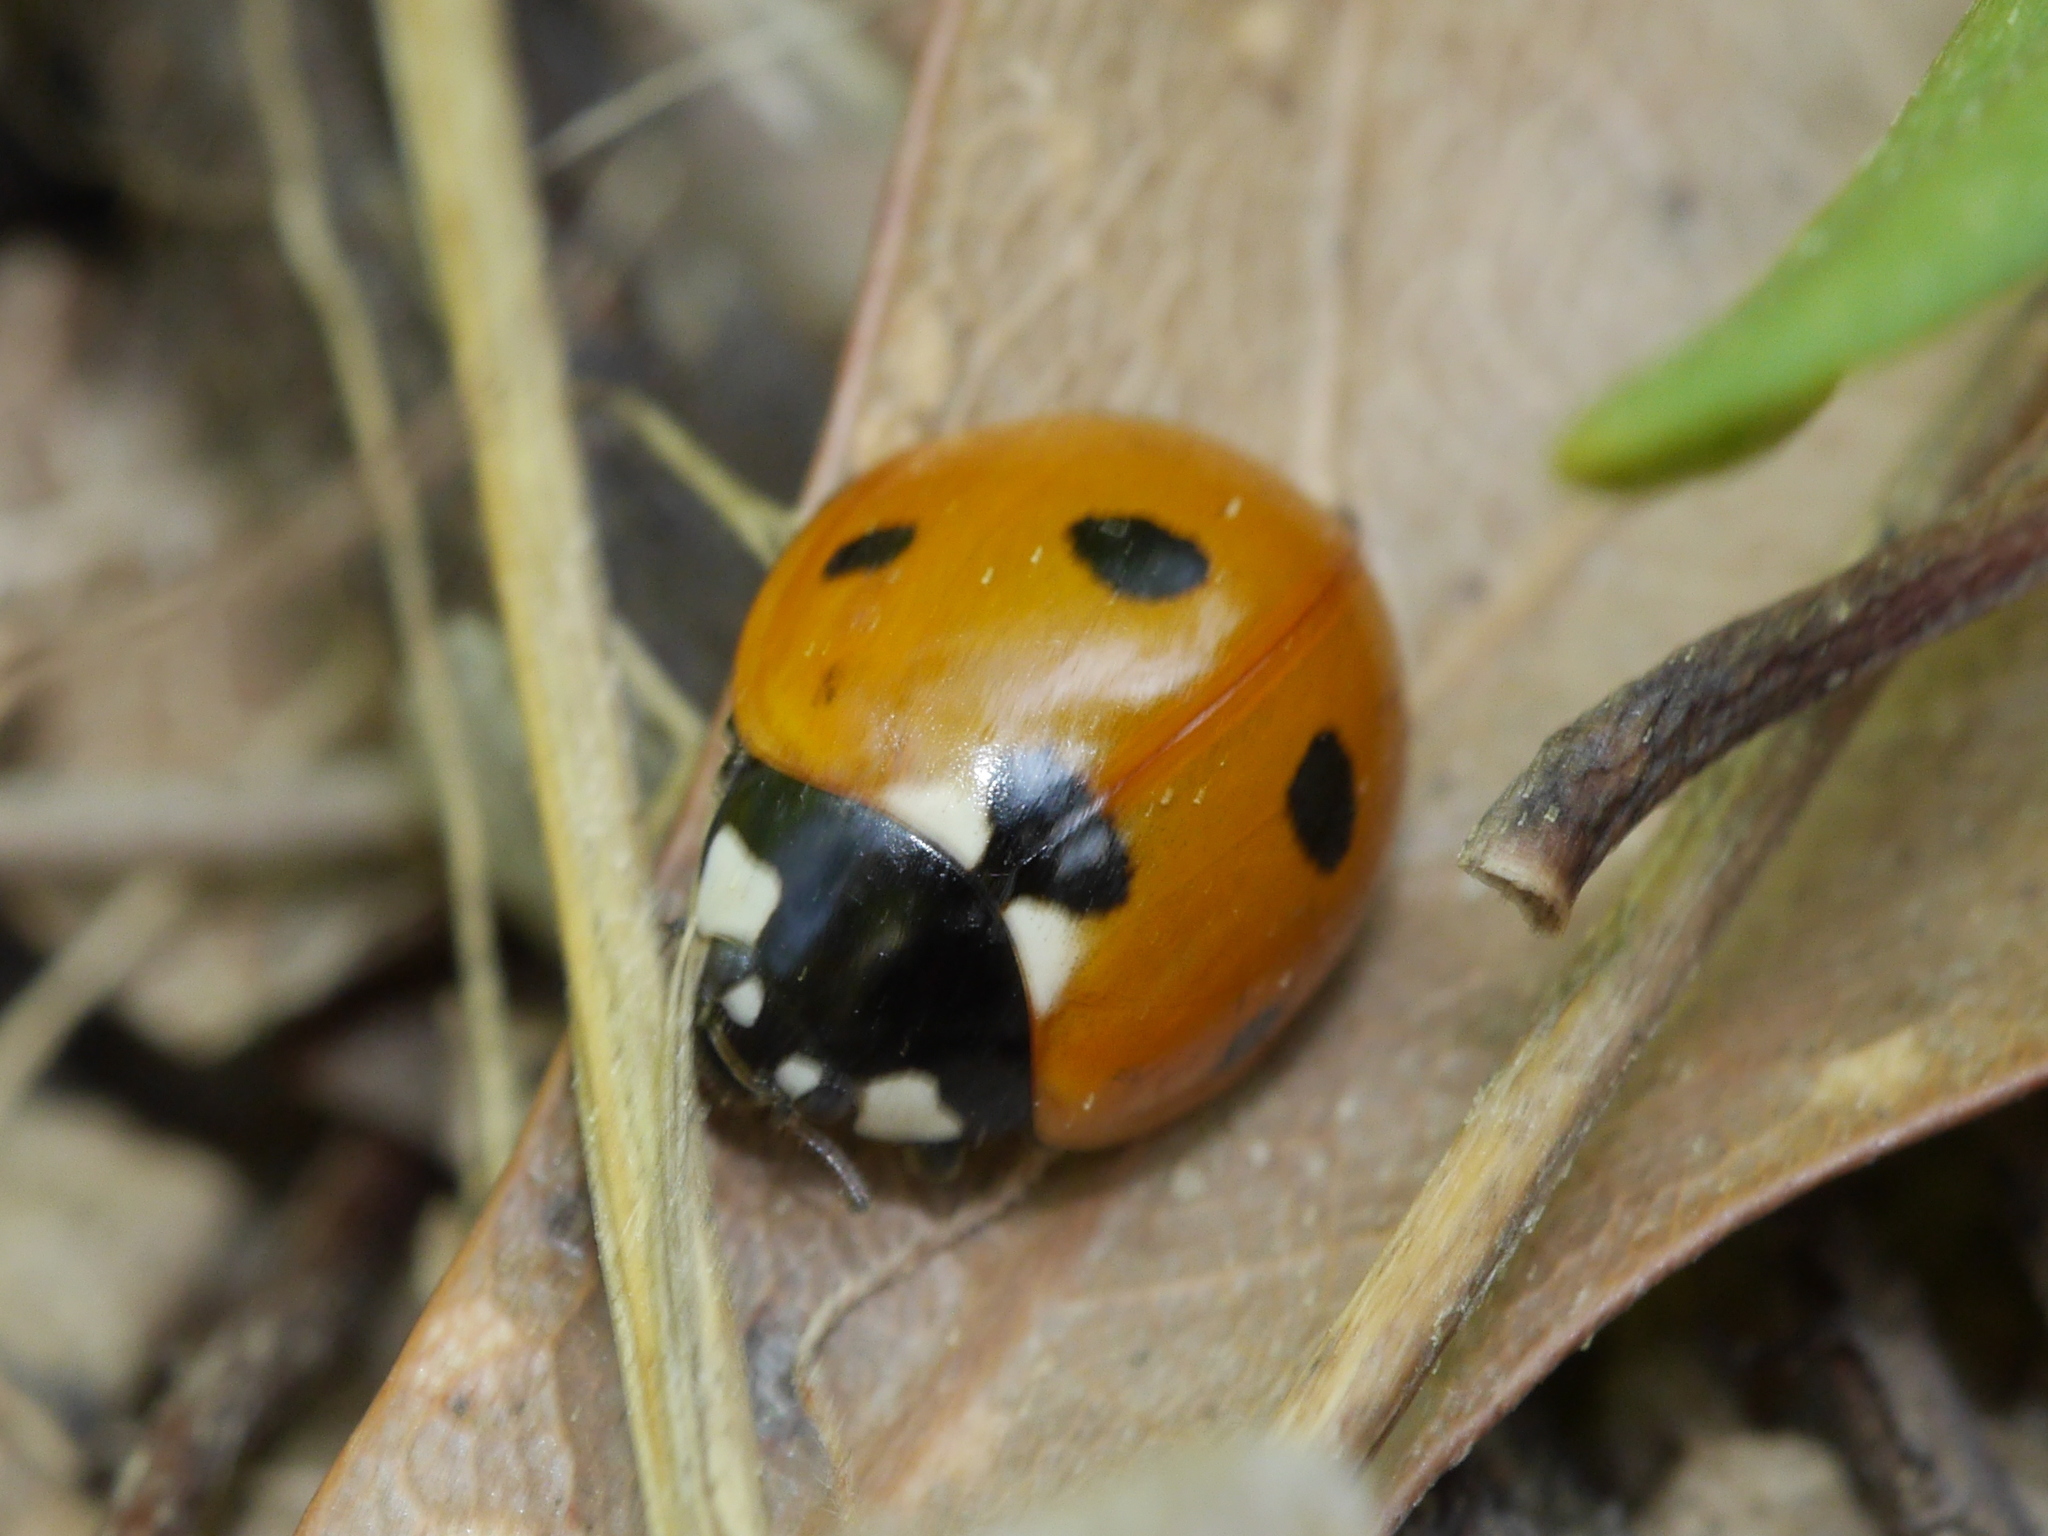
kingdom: Animalia
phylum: Arthropoda
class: Insecta
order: Coleoptera
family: Coccinellidae
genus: Coccinella
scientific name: Coccinella septempunctata
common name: Sevenspotted lady beetle
